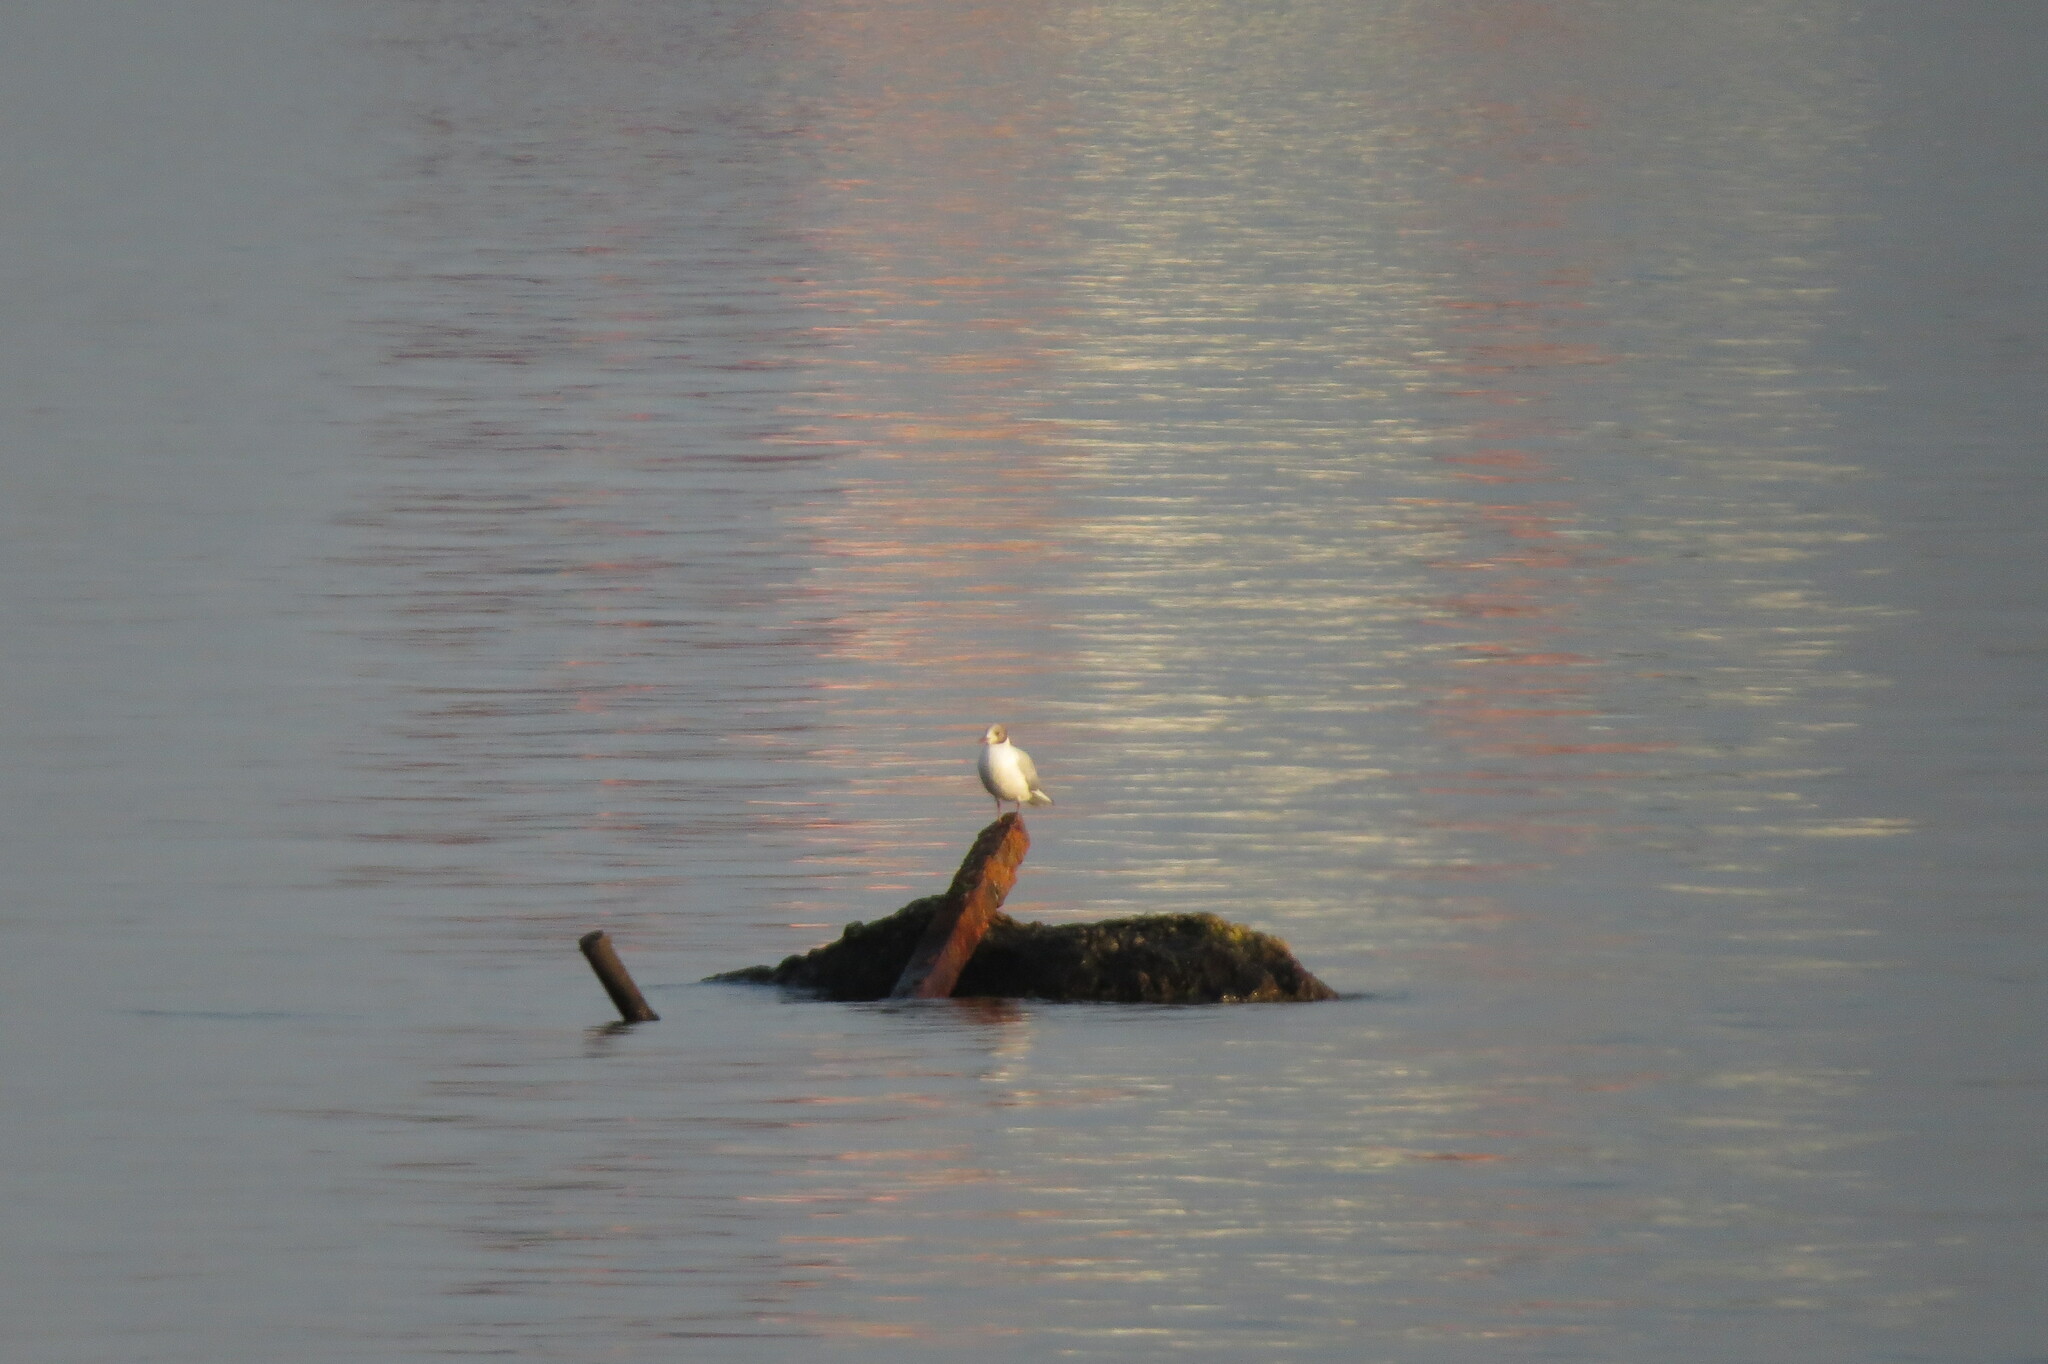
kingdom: Animalia
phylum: Chordata
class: Aves
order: Charadriiformes
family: Laridae
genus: Chroicocephalus
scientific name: Chroicocephalus ridibundus
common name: Black-headed gull
